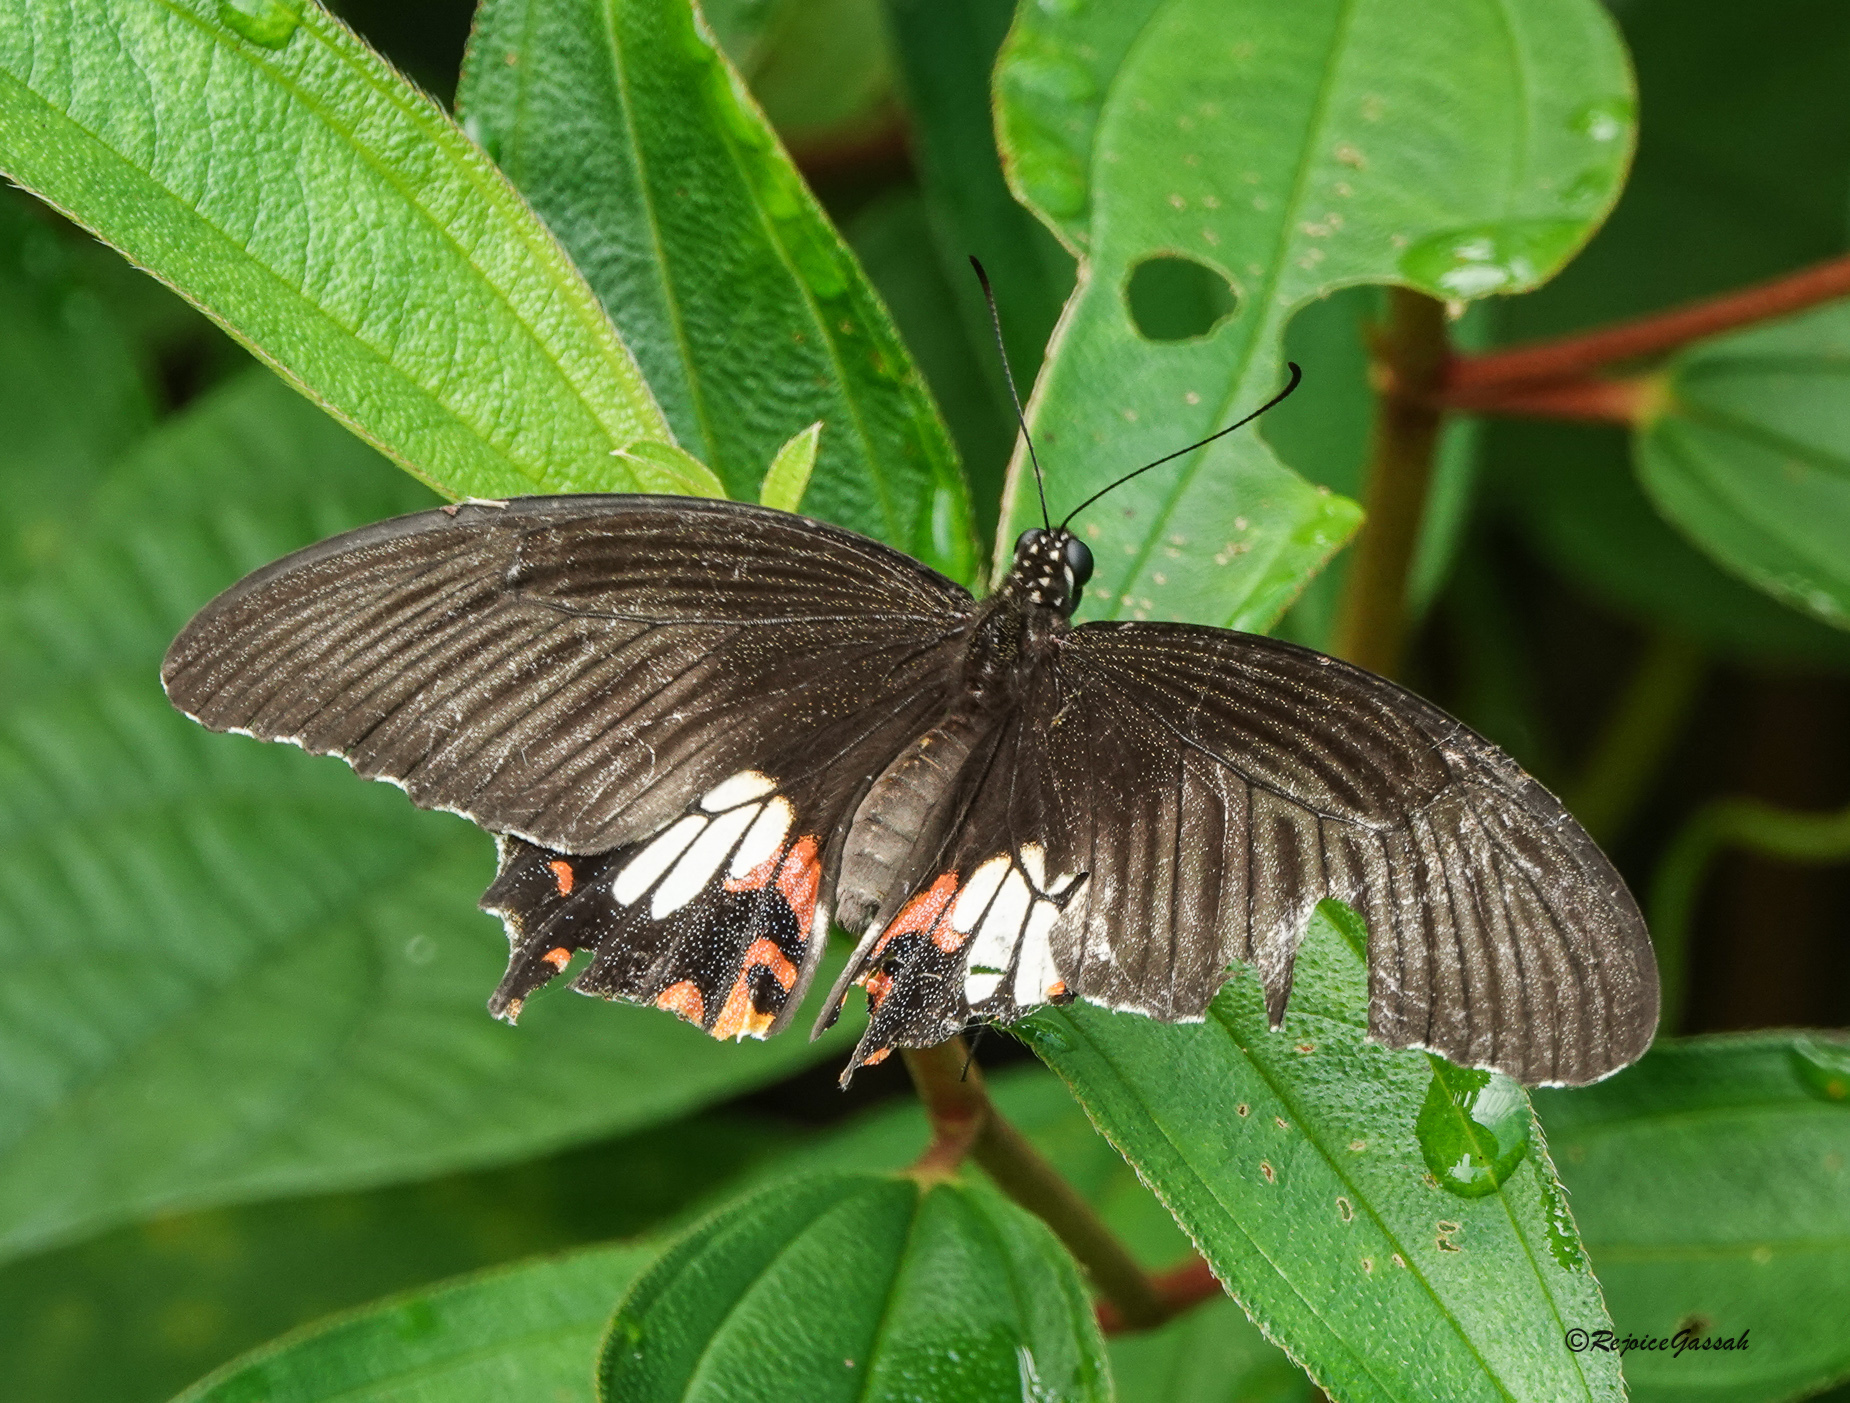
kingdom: Animalia
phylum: Arthropoda
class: Insecta
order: Lepidoptera
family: Papilionidae
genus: Papilio
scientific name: Papilio polytes
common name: Common mormon
